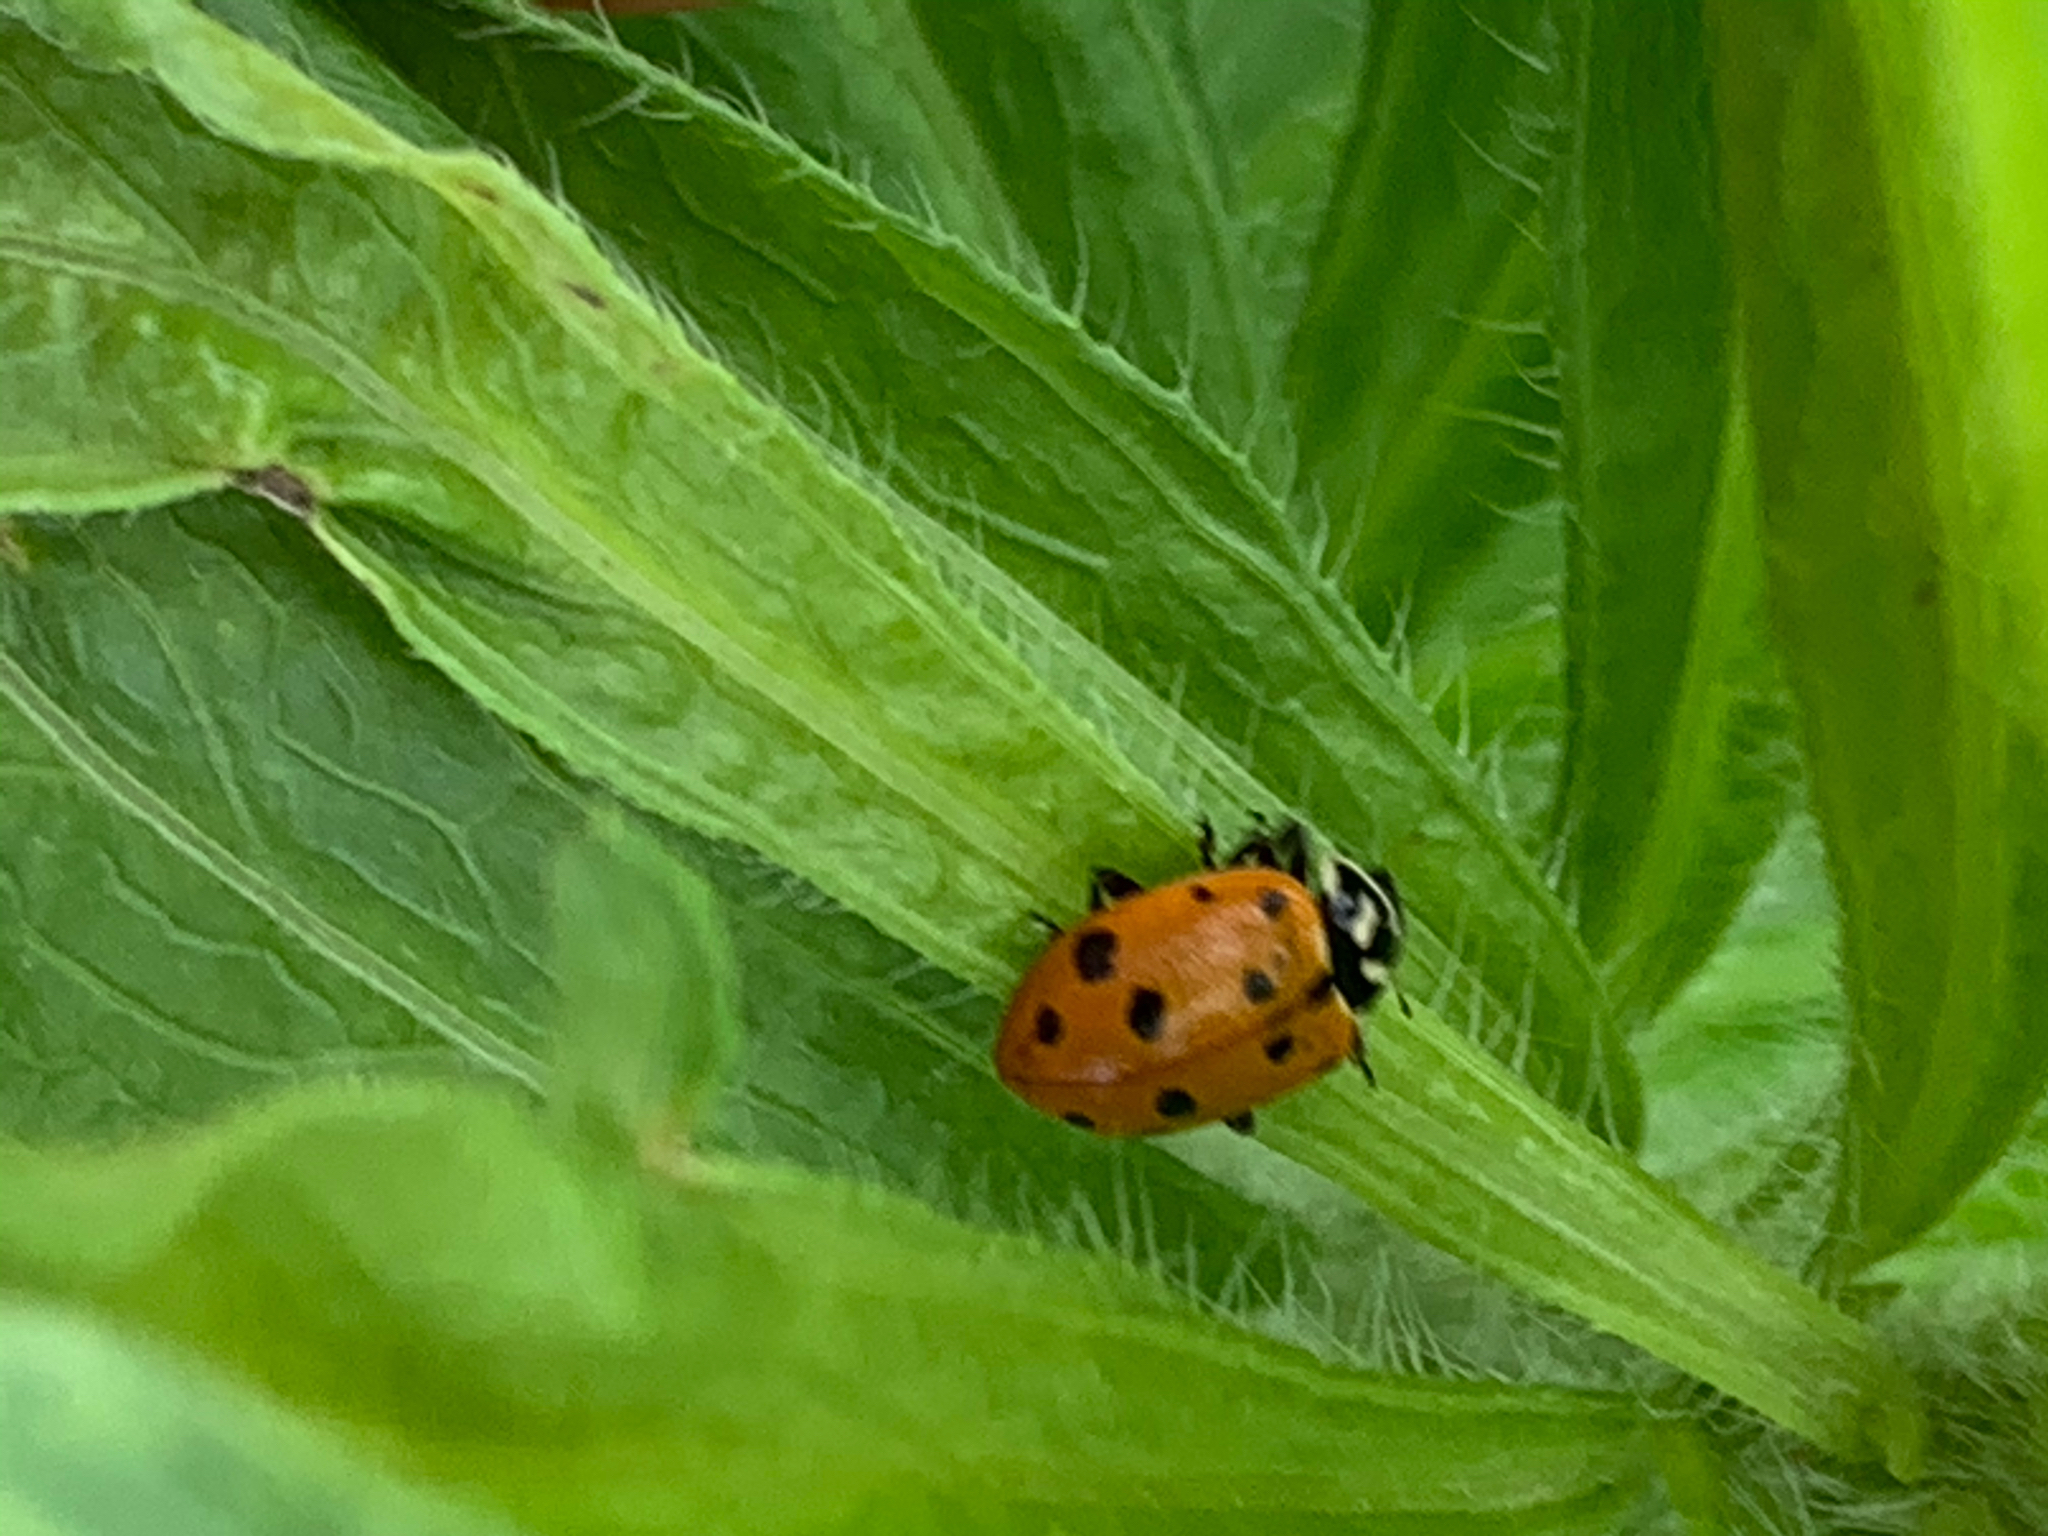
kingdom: Animalia
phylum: Arthropoda
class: Insecta
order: Coleoptera
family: Coccinellidae
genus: Hippodamia
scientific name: Hippodamia convergens
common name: Convergent lady beetle
